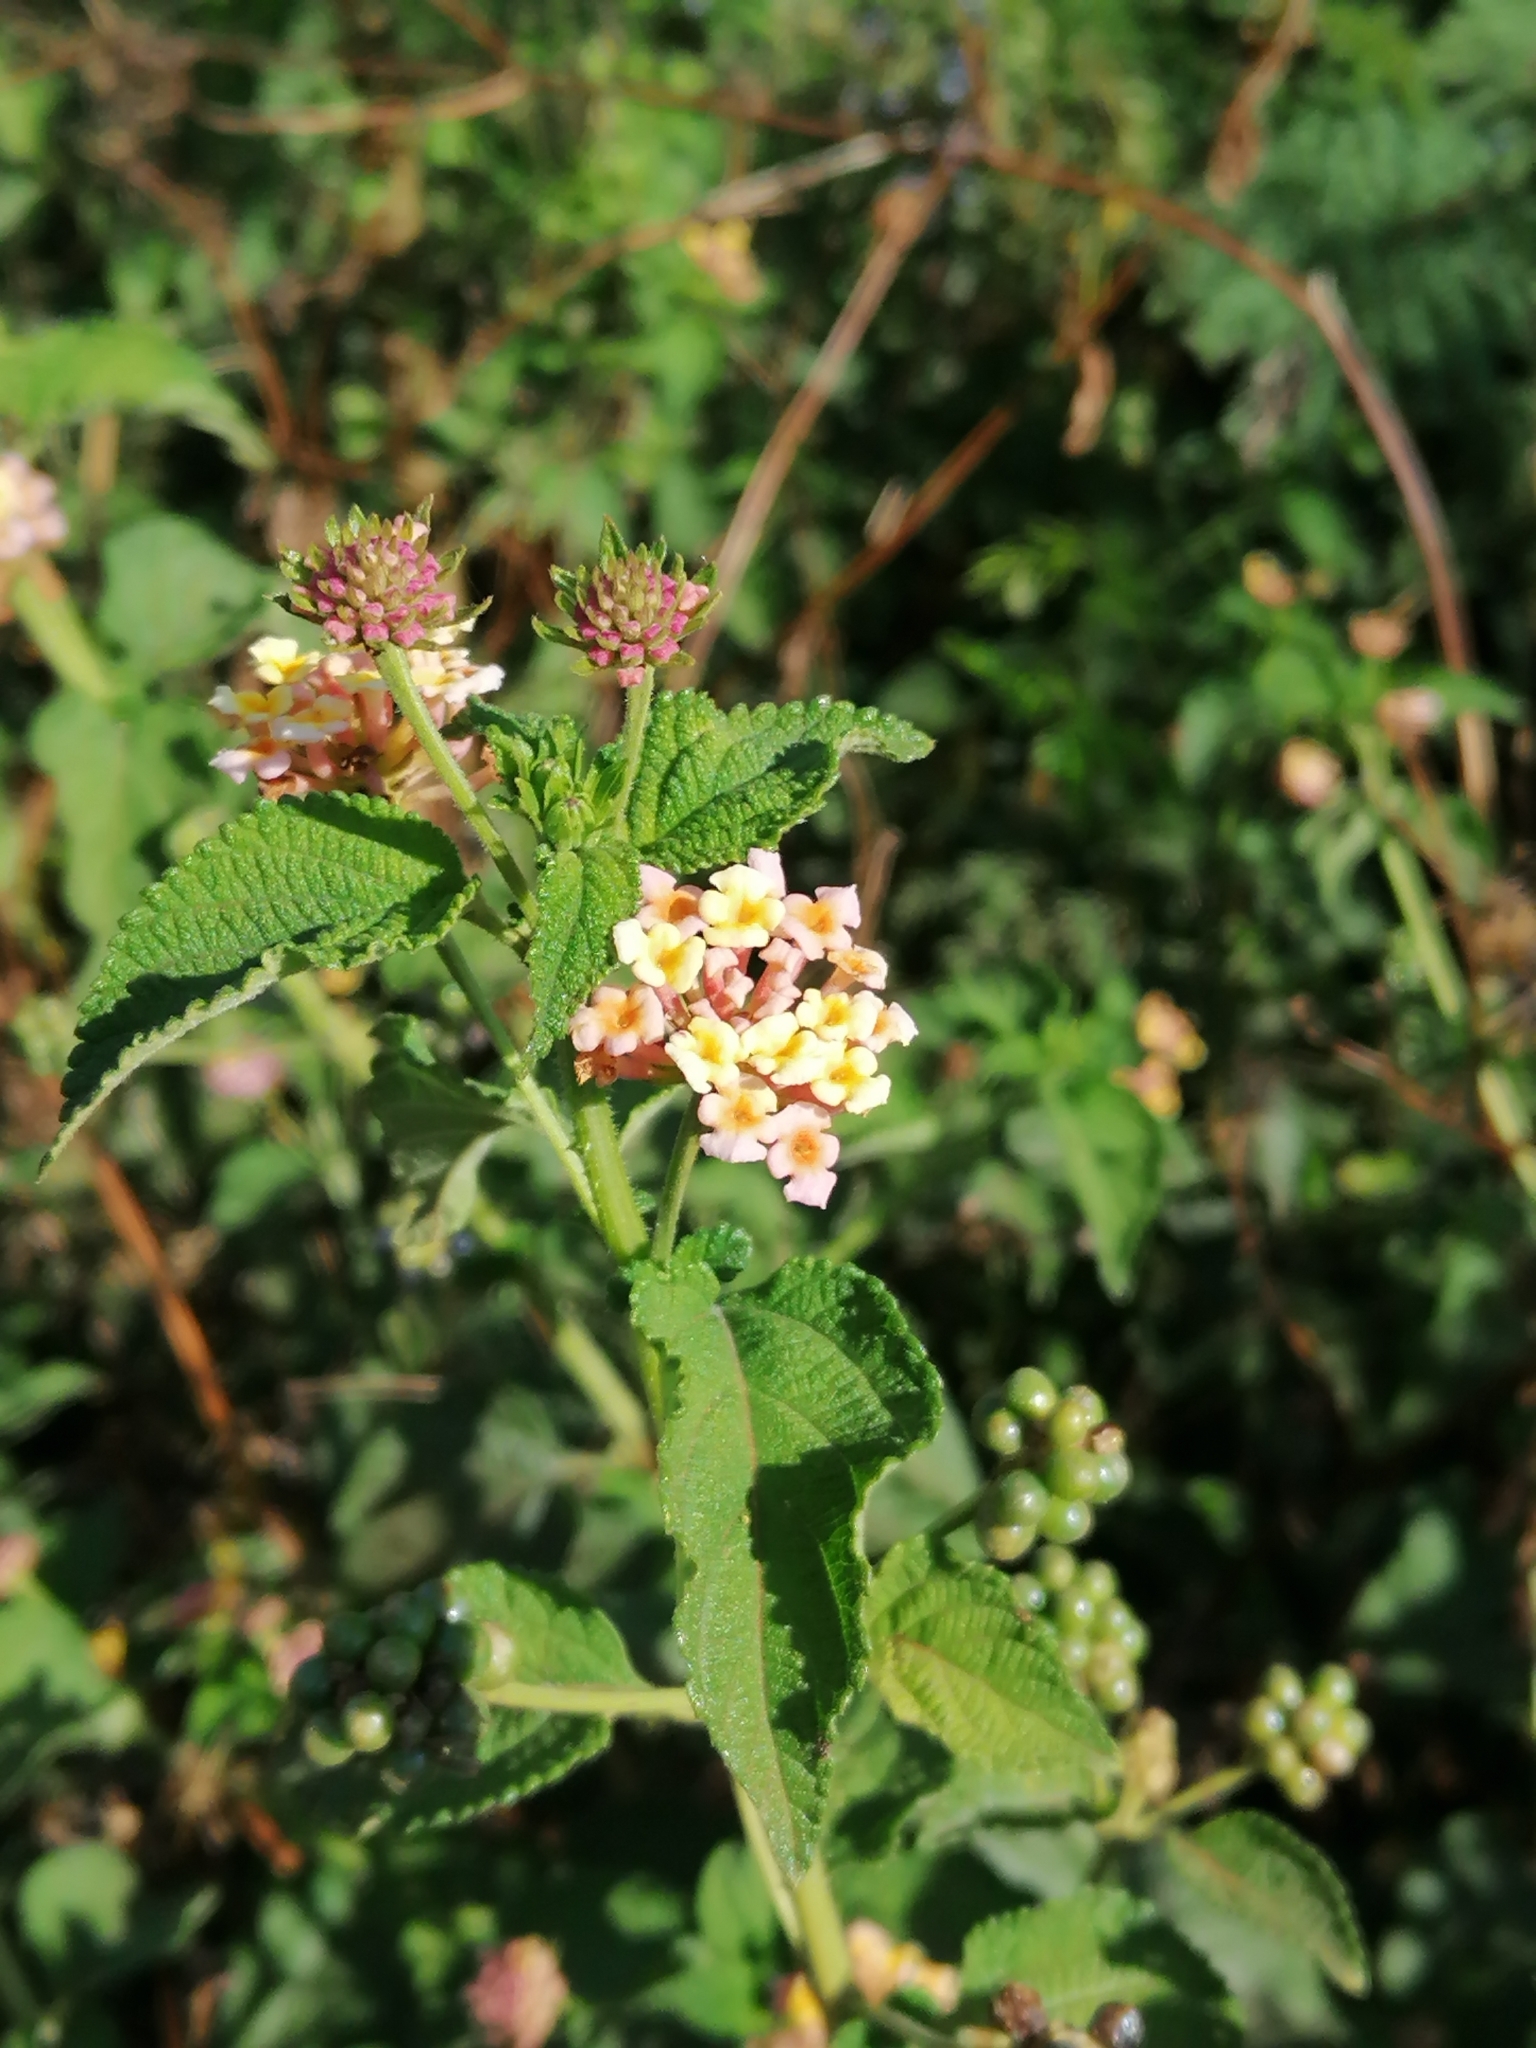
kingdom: Plantae
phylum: Tracheophyta
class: Magnoliopsida
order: Lamiales
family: Verbenaceae
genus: Lantana
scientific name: Lantana camara
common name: Lantana
